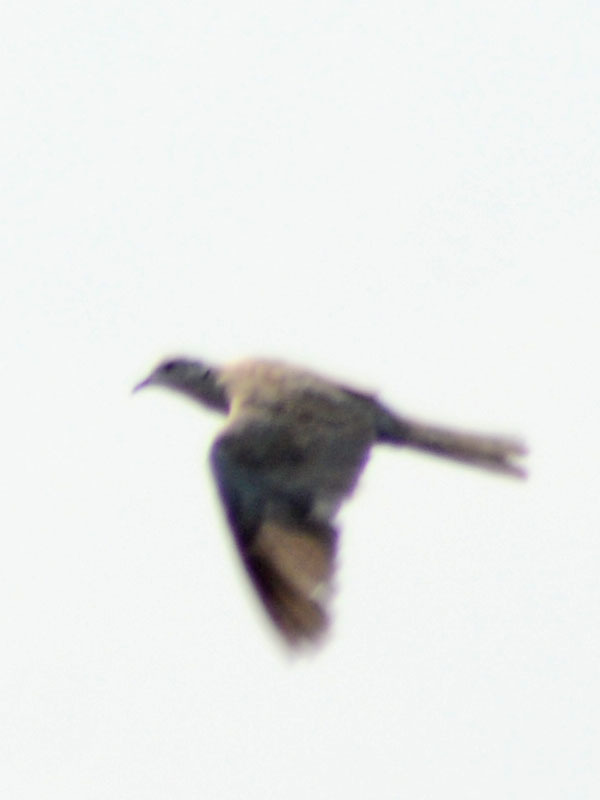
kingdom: Animalia
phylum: Chordata
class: Aves
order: Columbiformes
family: Columbidae
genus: Streptopelia
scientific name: Streptopelia decaocto
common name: Eurasian collared dove
